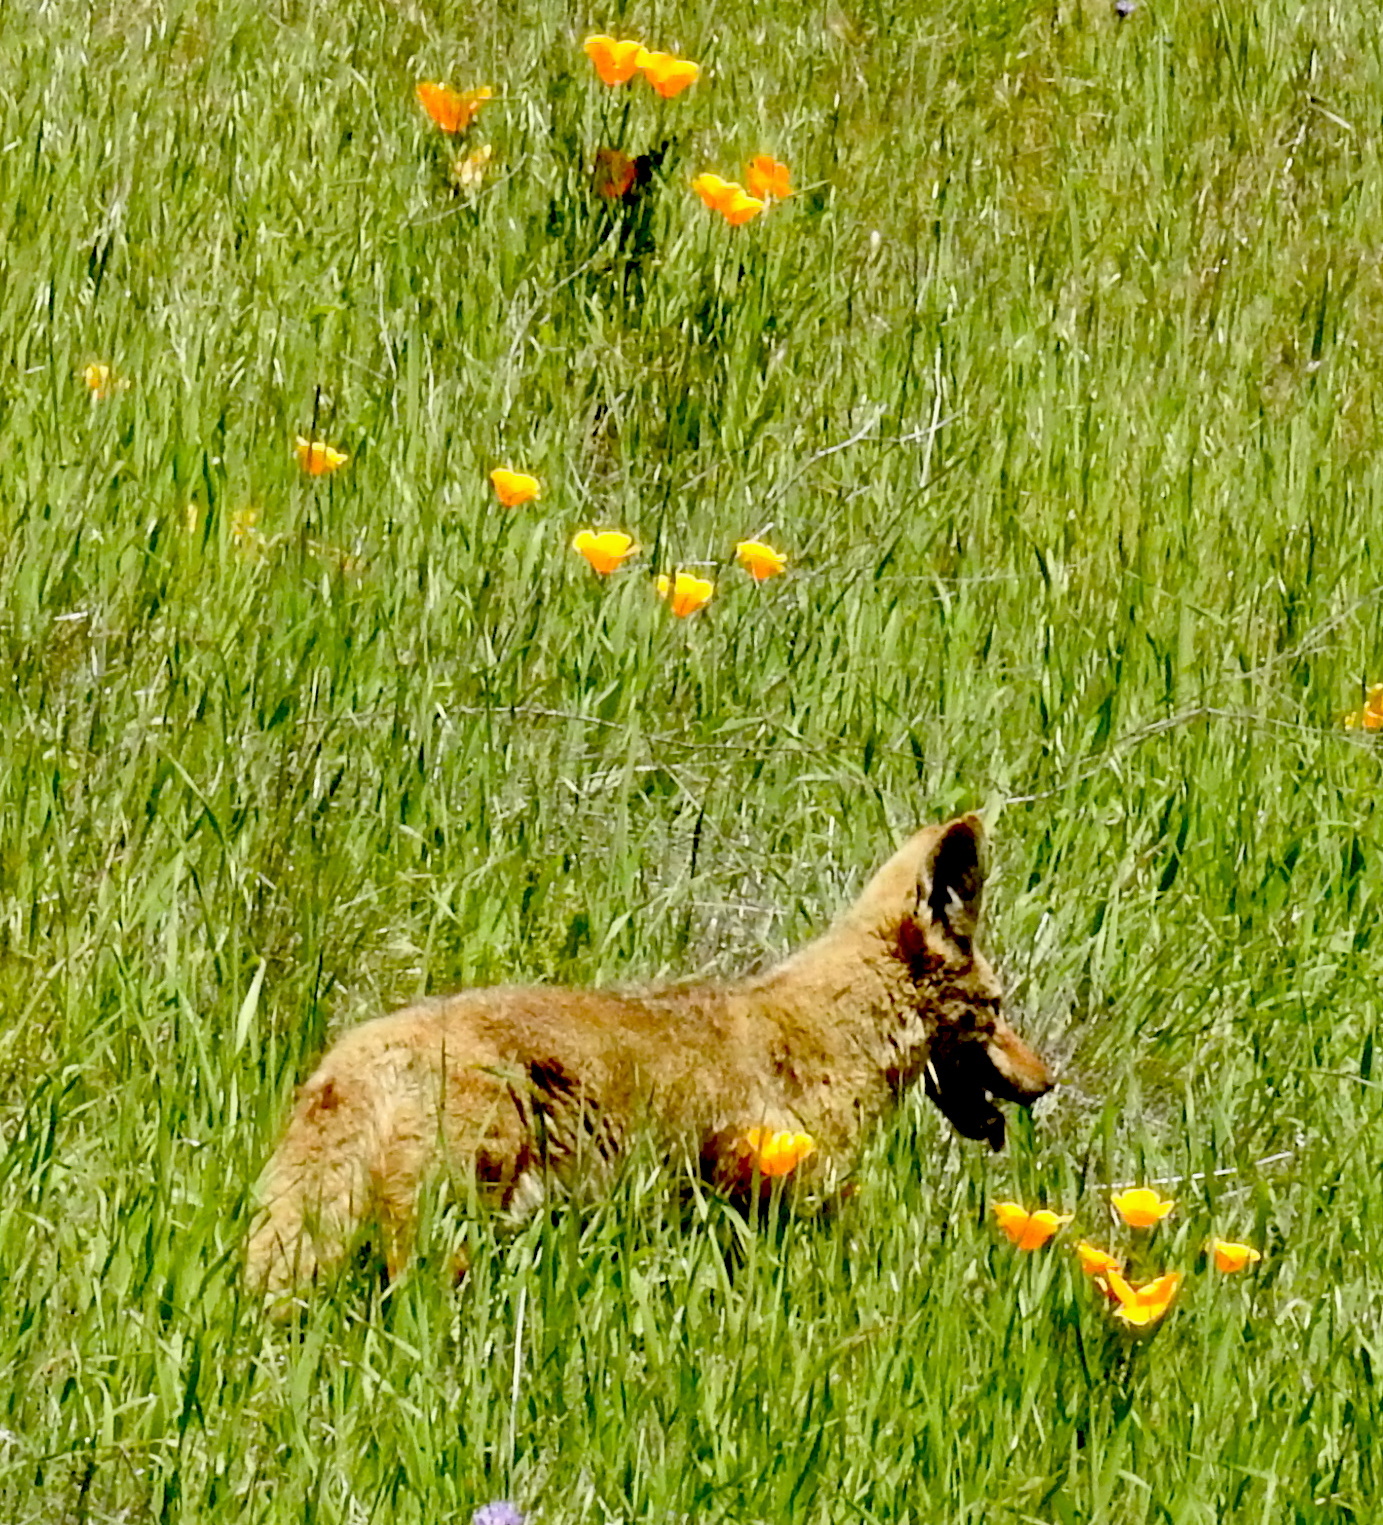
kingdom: Animalia
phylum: Chordata
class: Mammalia
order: Carnivora
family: Canidae
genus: Canis
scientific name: Canis latrans
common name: Coyote
